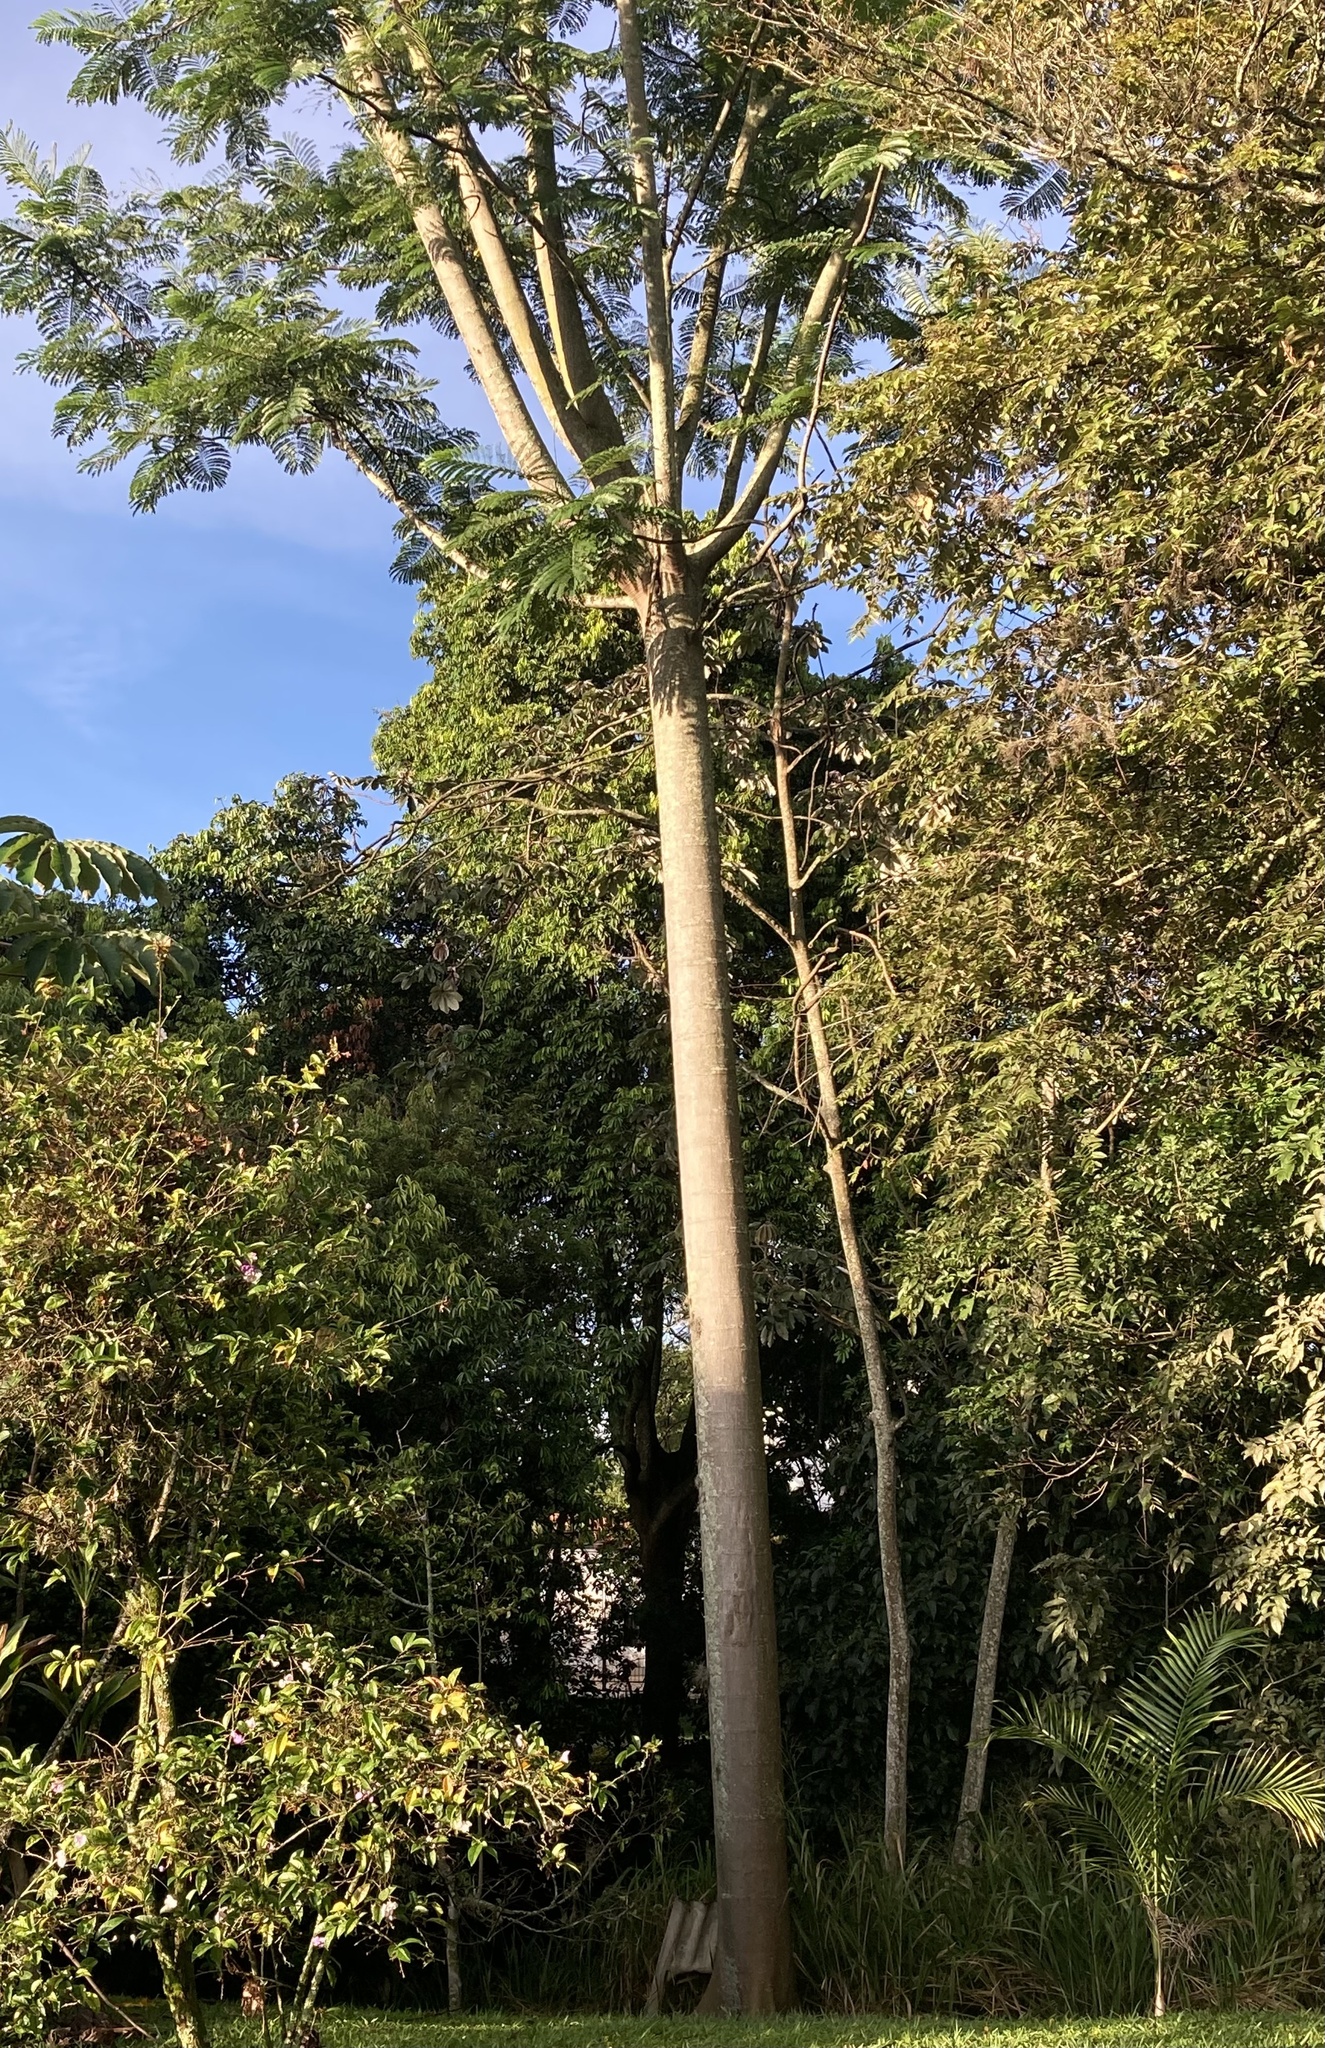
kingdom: Plantae
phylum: Tracheophyta
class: Magnoliopsida
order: Fabales
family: Fabaceae
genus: Schizolobium
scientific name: Schizolobium parahyba
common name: Brazilian firetree
